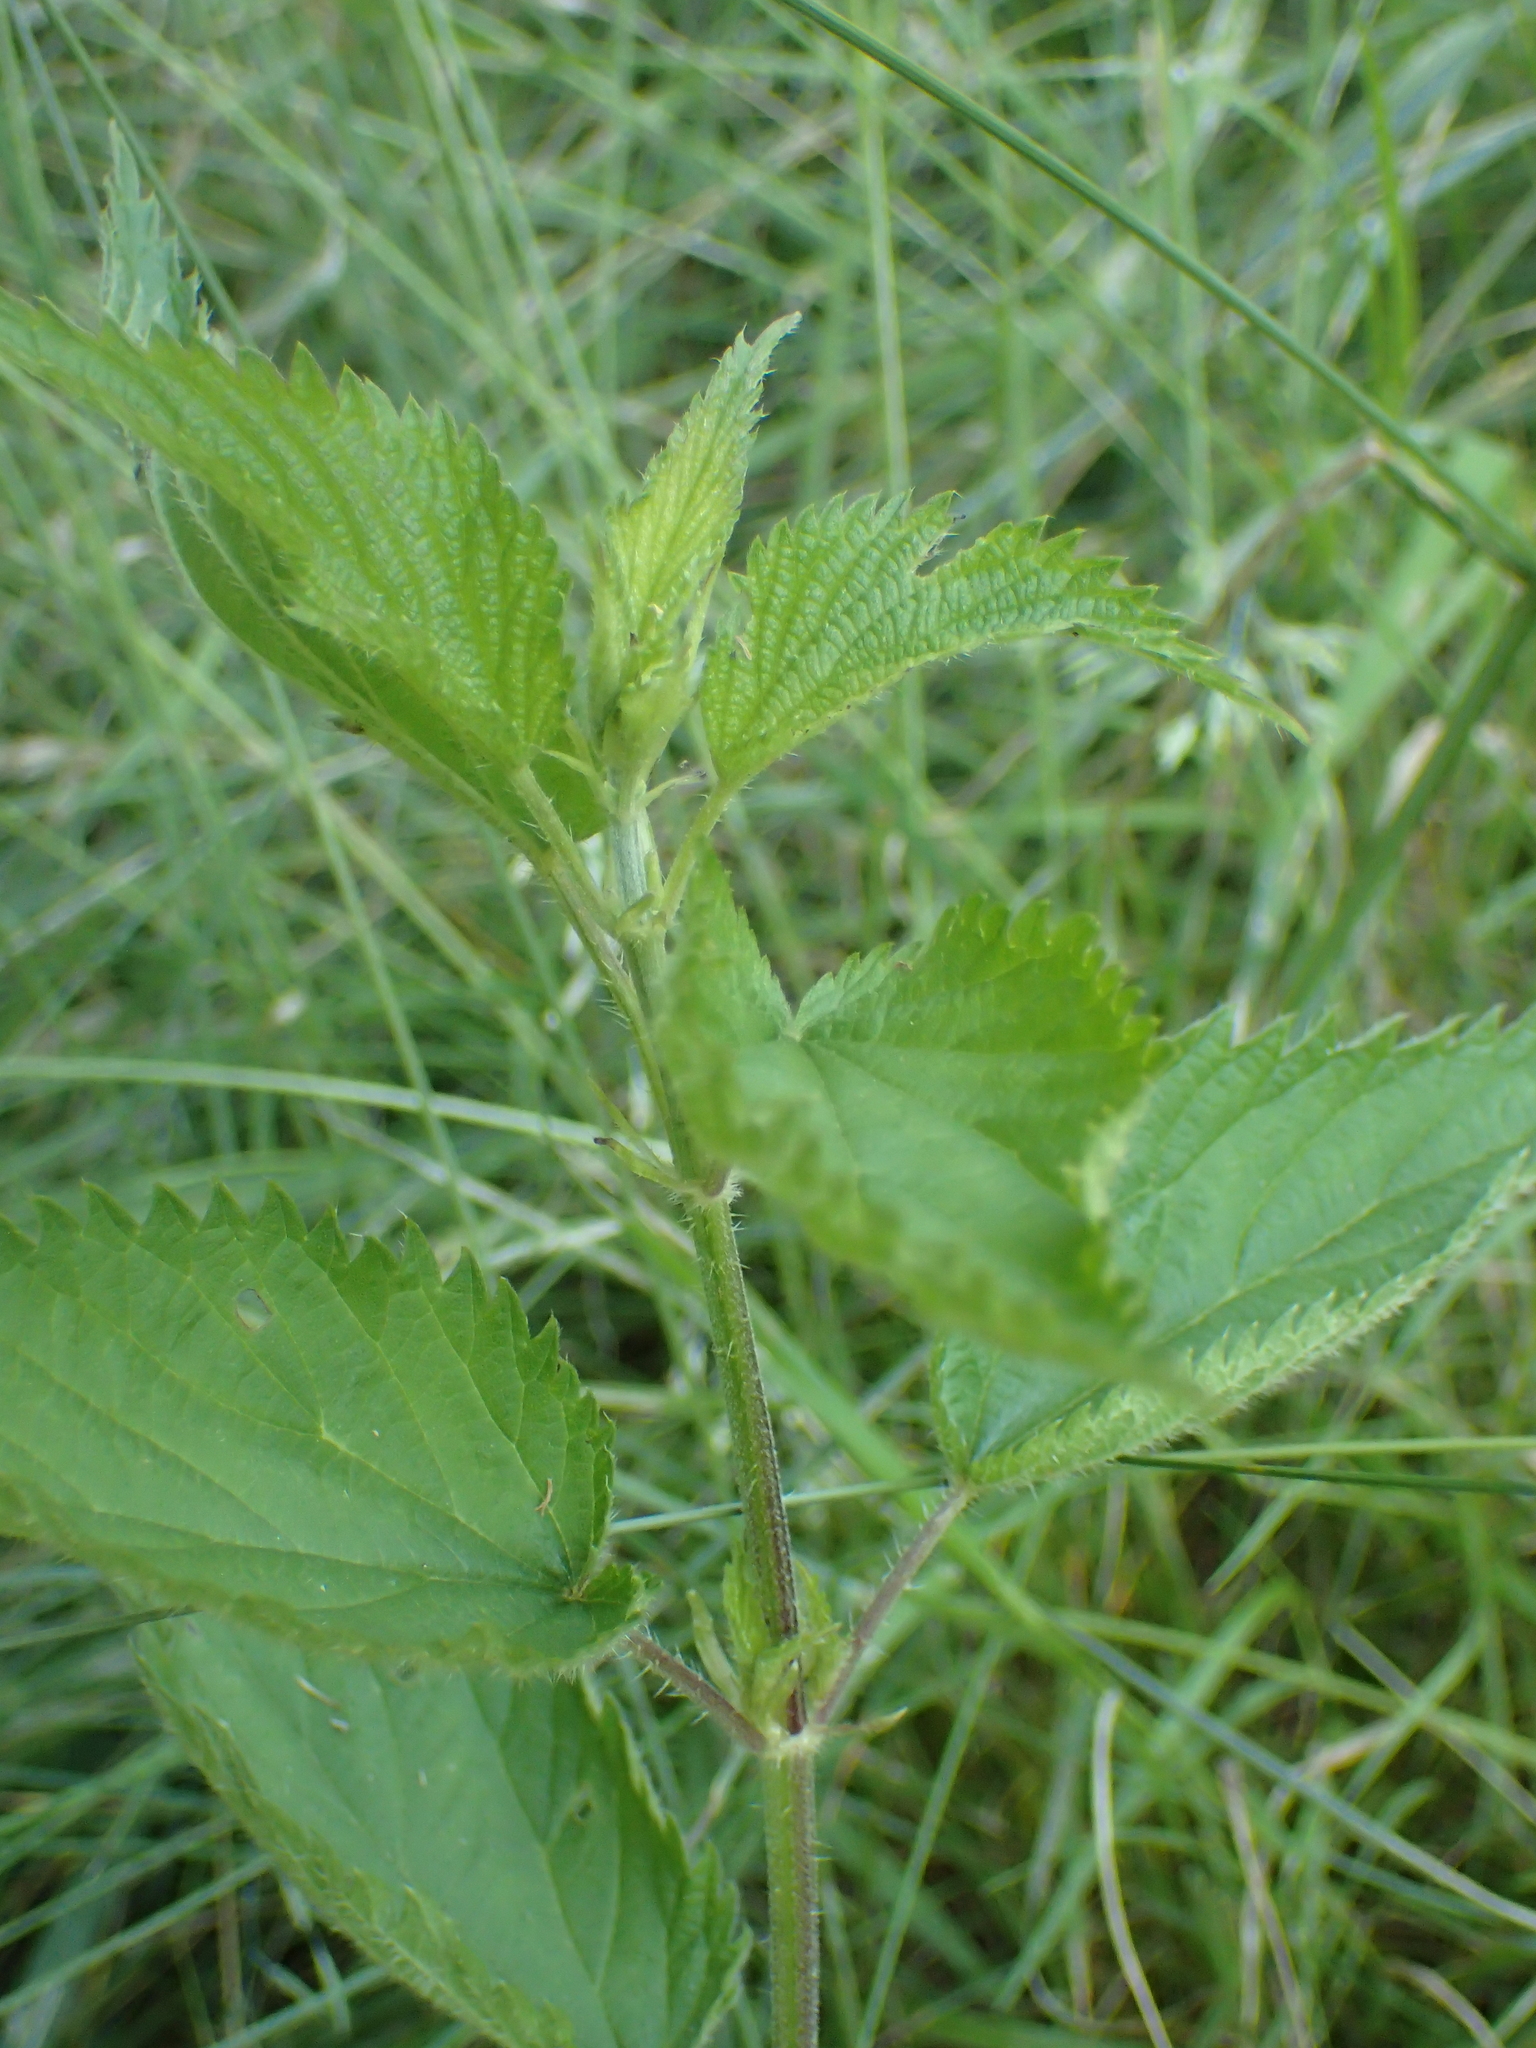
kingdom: Plantae
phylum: Tracheophyta
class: Magnoliopsida
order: Rosales
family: Urticaceae
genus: Urtica
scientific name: Urtica dioica
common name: Common nettle
